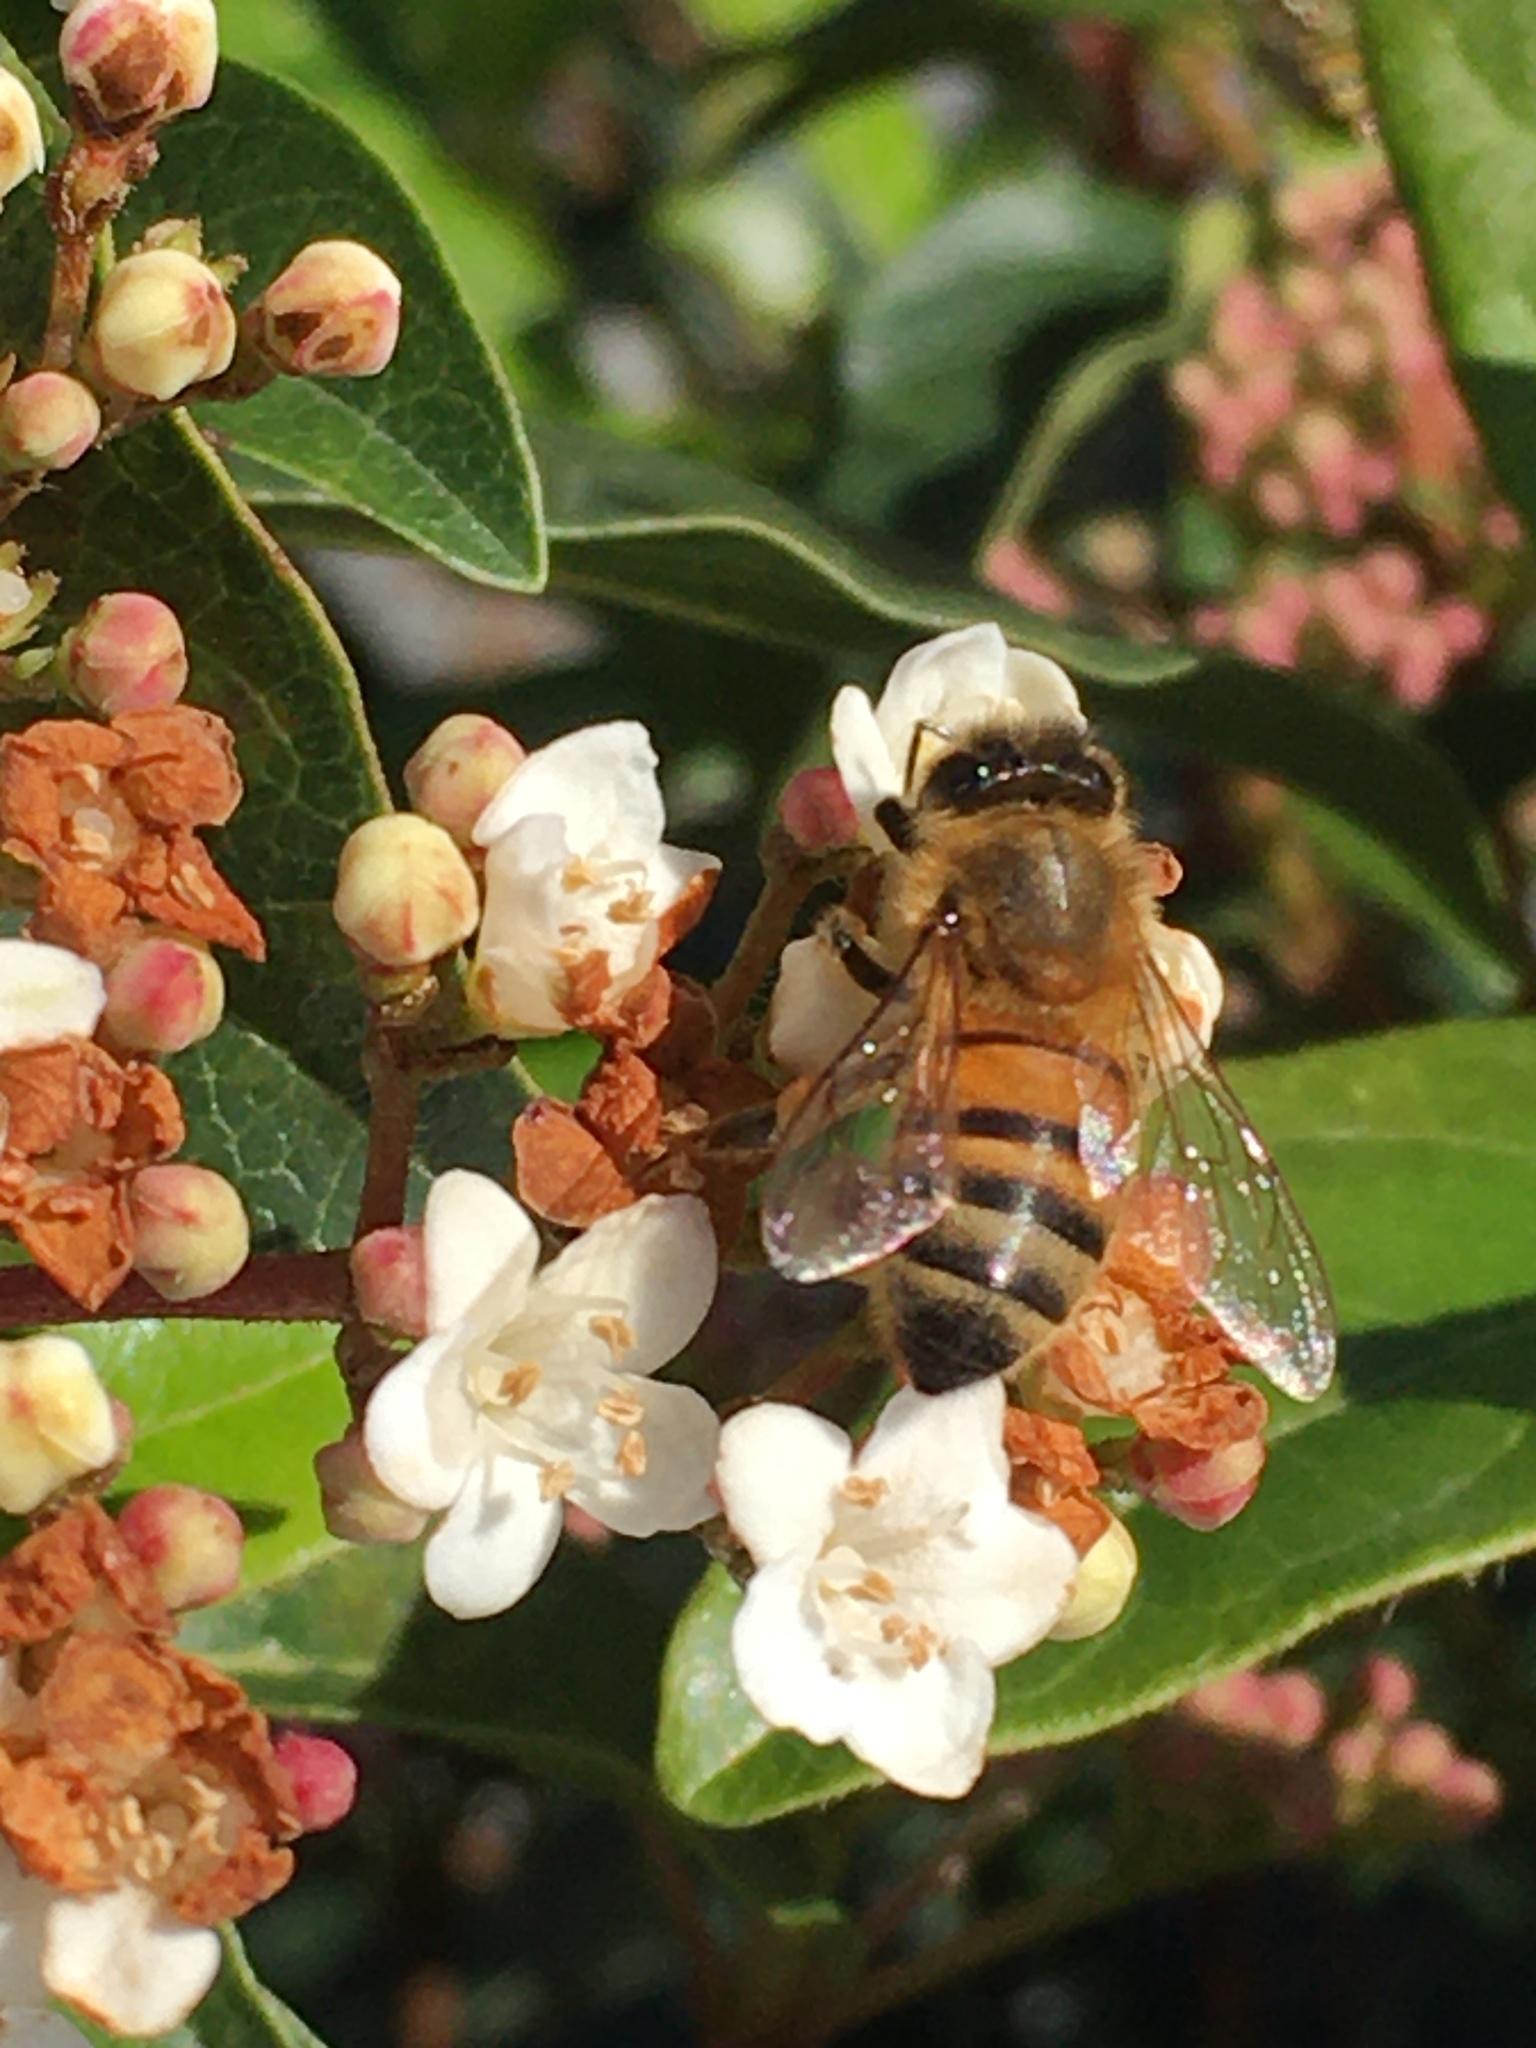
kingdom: Animalia
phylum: Arthropoda
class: Insecta
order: Hymenoptera
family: Apidae
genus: Apis
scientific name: Apis mellifera
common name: Honey bee
